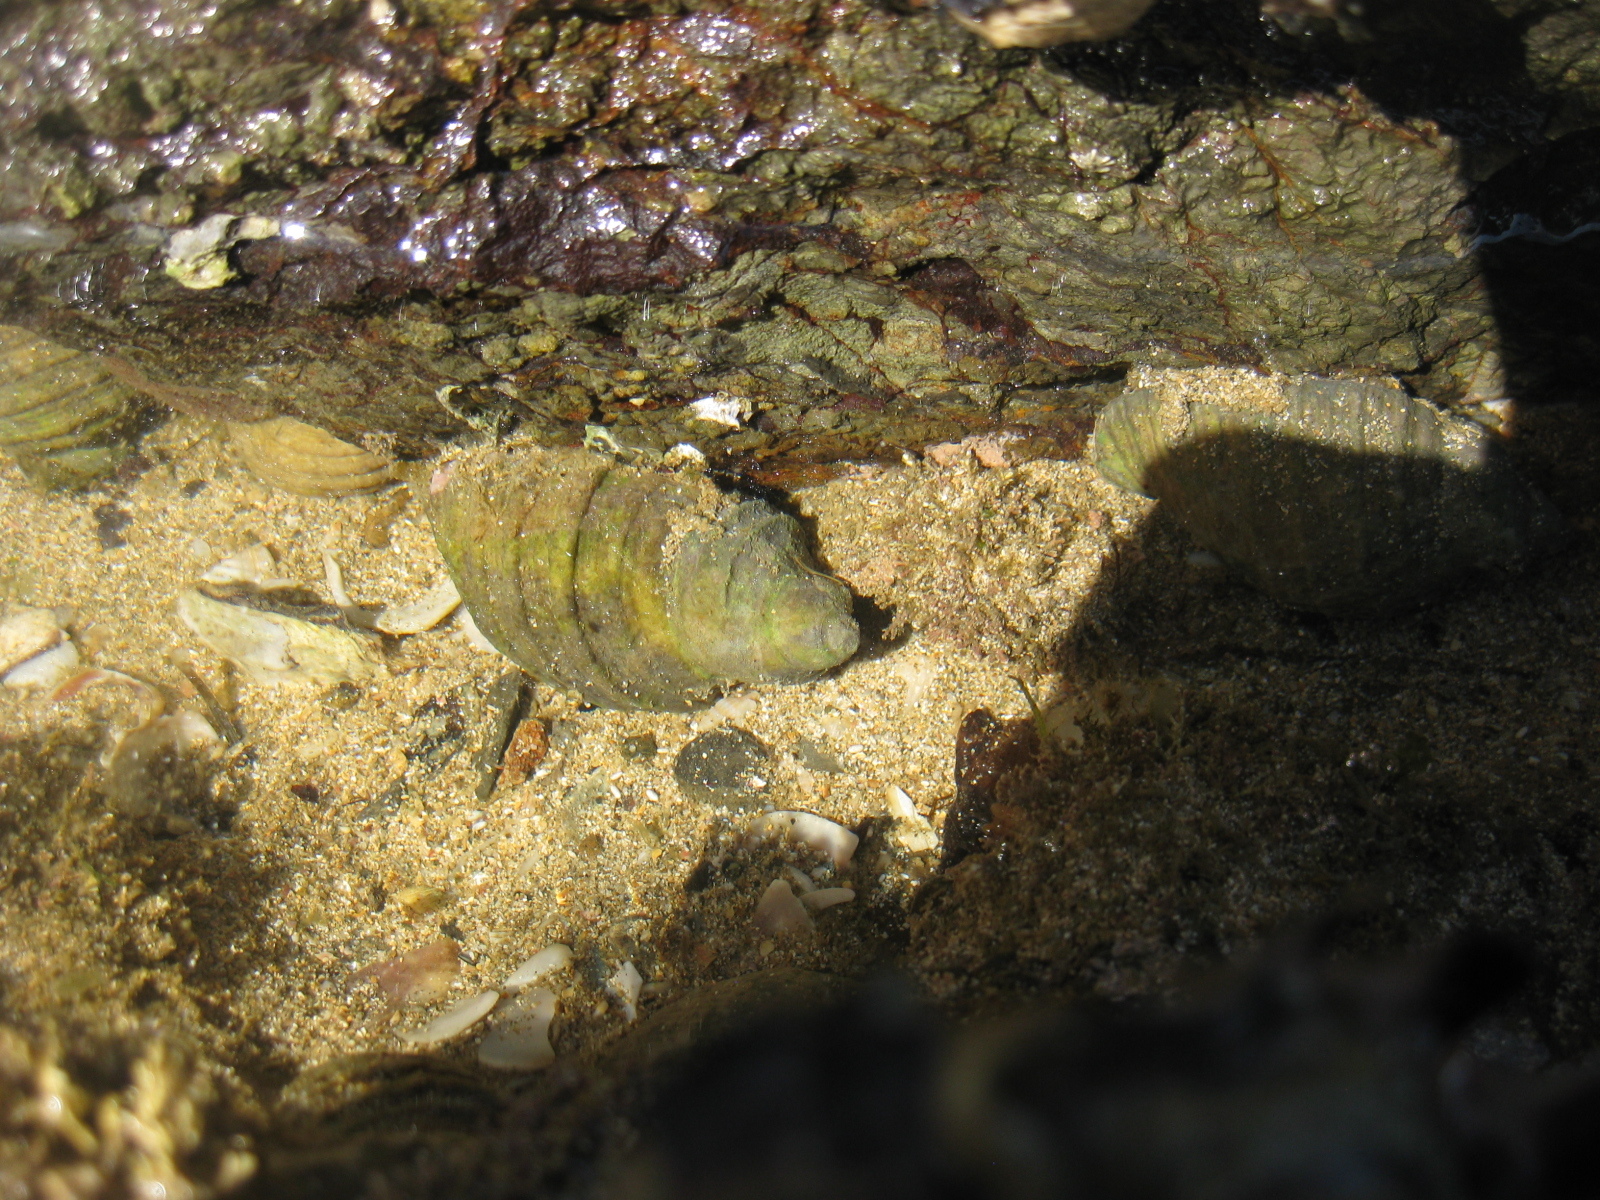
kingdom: Animalia
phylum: Mollusca
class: Gastropoda
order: Neogastropoda
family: Muricidae
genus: Dicathais
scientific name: Dicathais orbita
